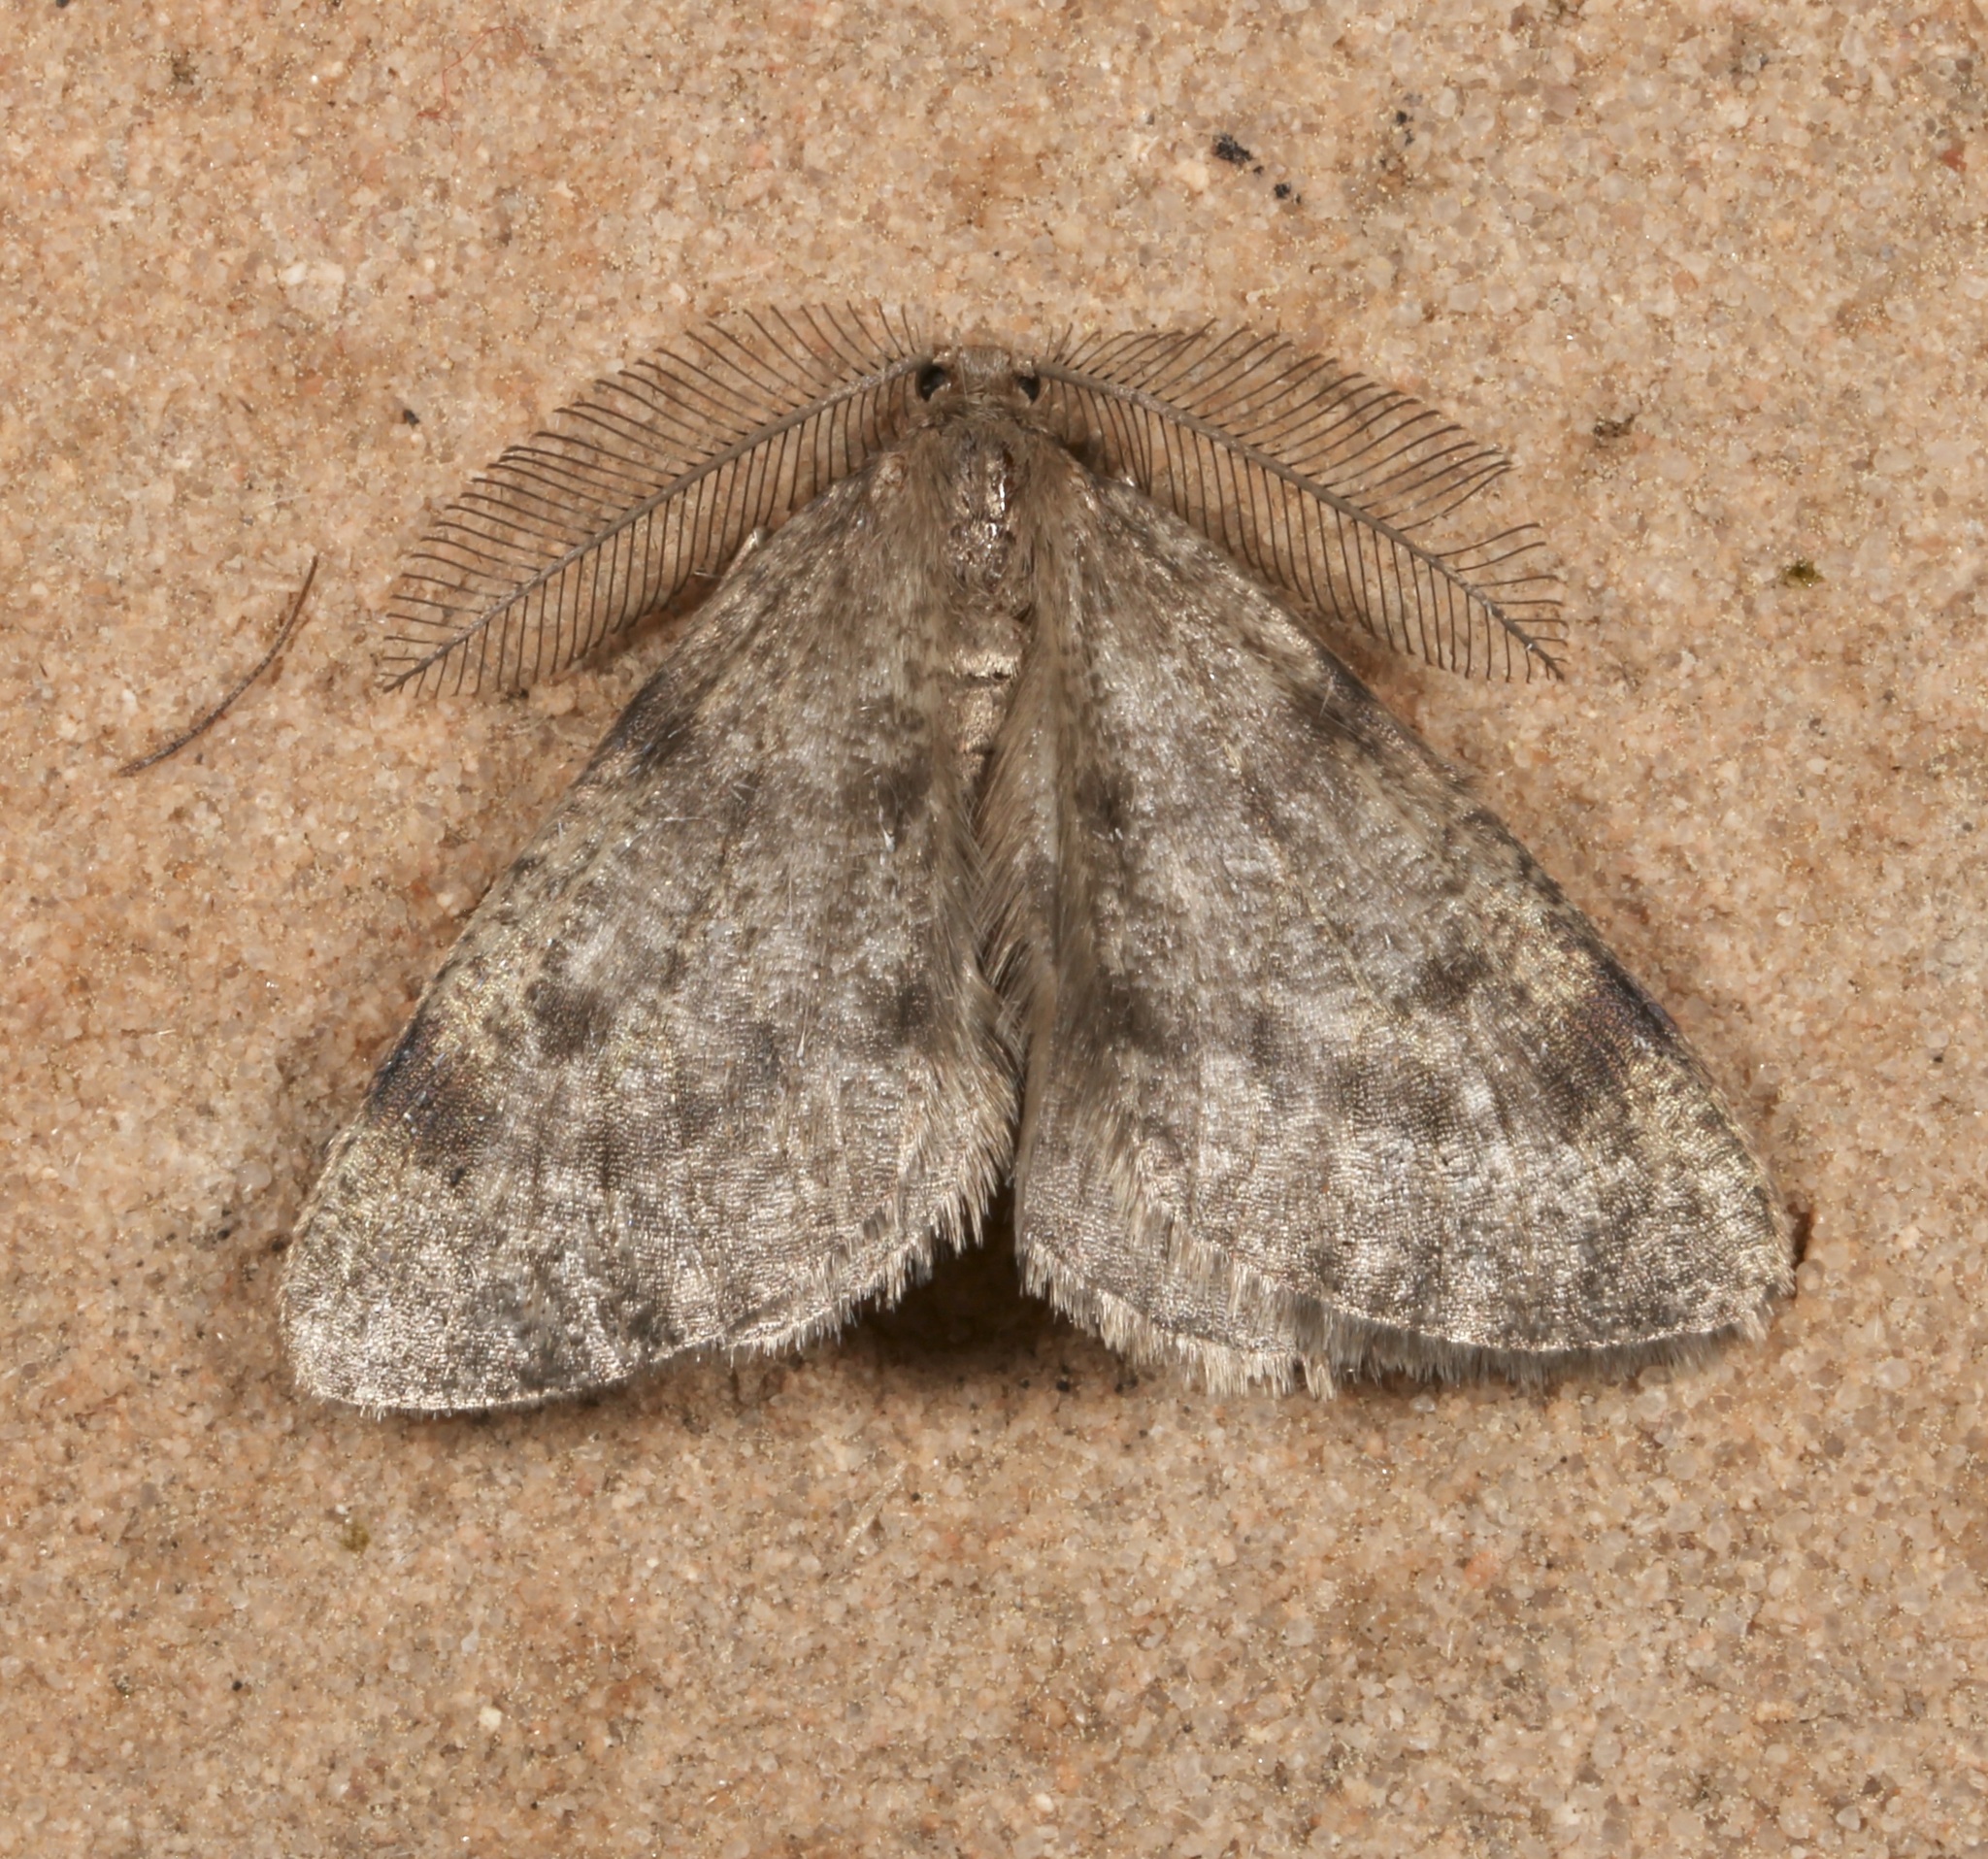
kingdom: Animalia
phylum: Arthropoda
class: Insecta
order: Lepidoptera
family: Geometridae
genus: Animomyia
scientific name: Animomyia smithii
